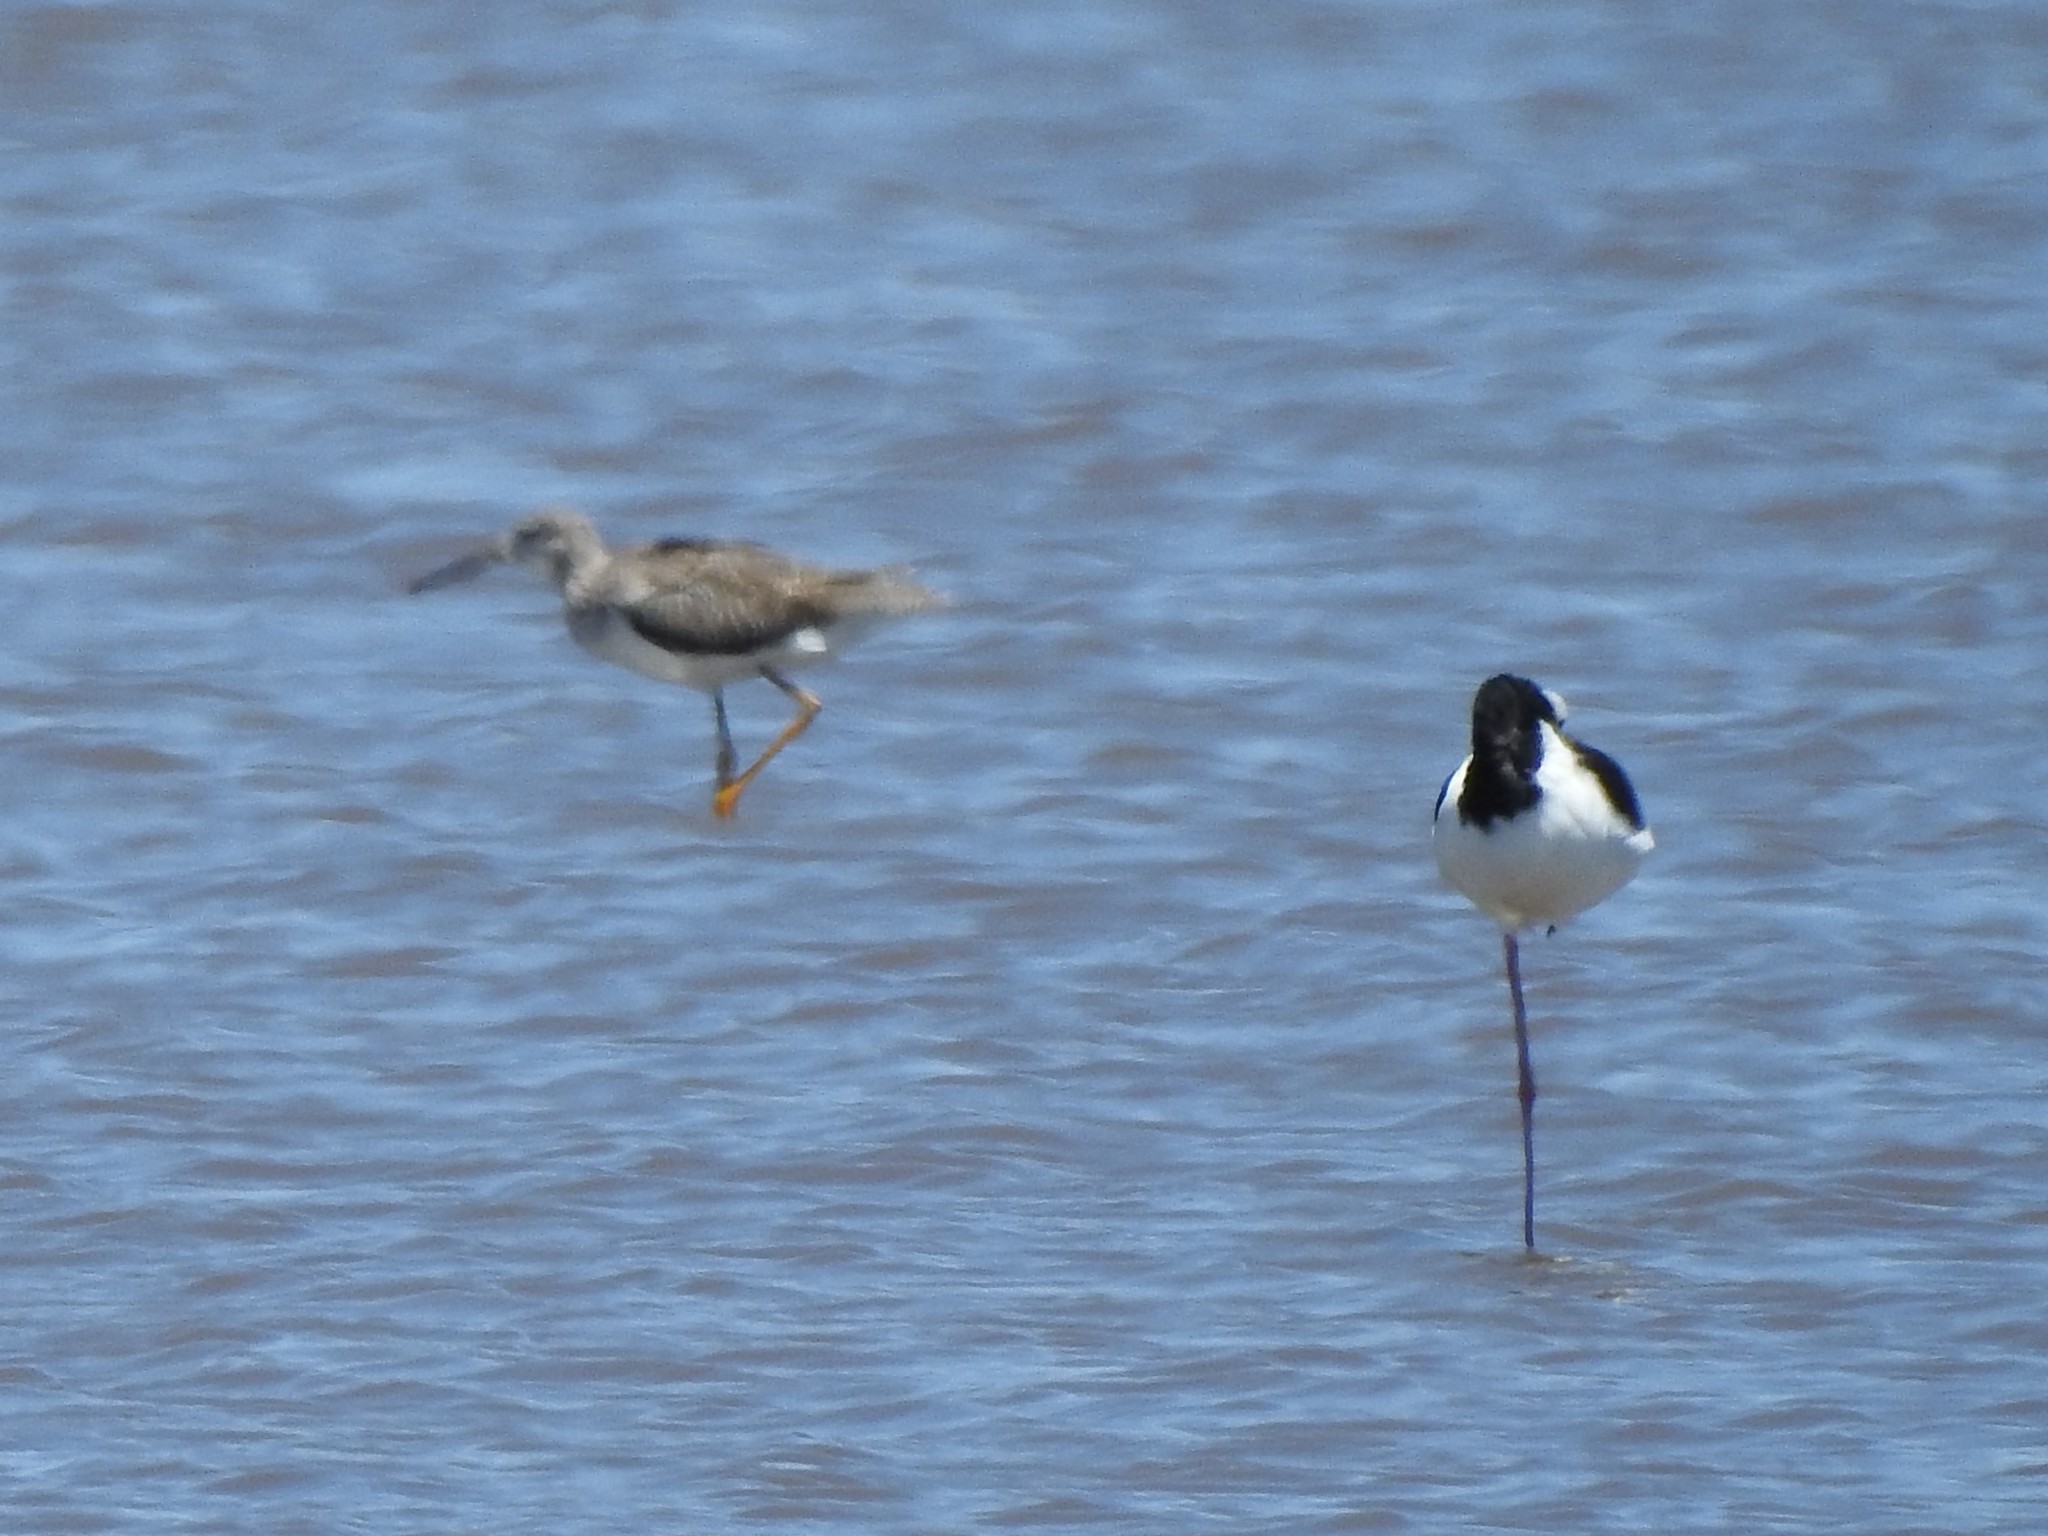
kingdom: Animalia
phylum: Chordata
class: Aves
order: Charadriiformes
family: Scolopacidae
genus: Tringa
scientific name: Tringa melanoleuca
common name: Greater yellowlegs
